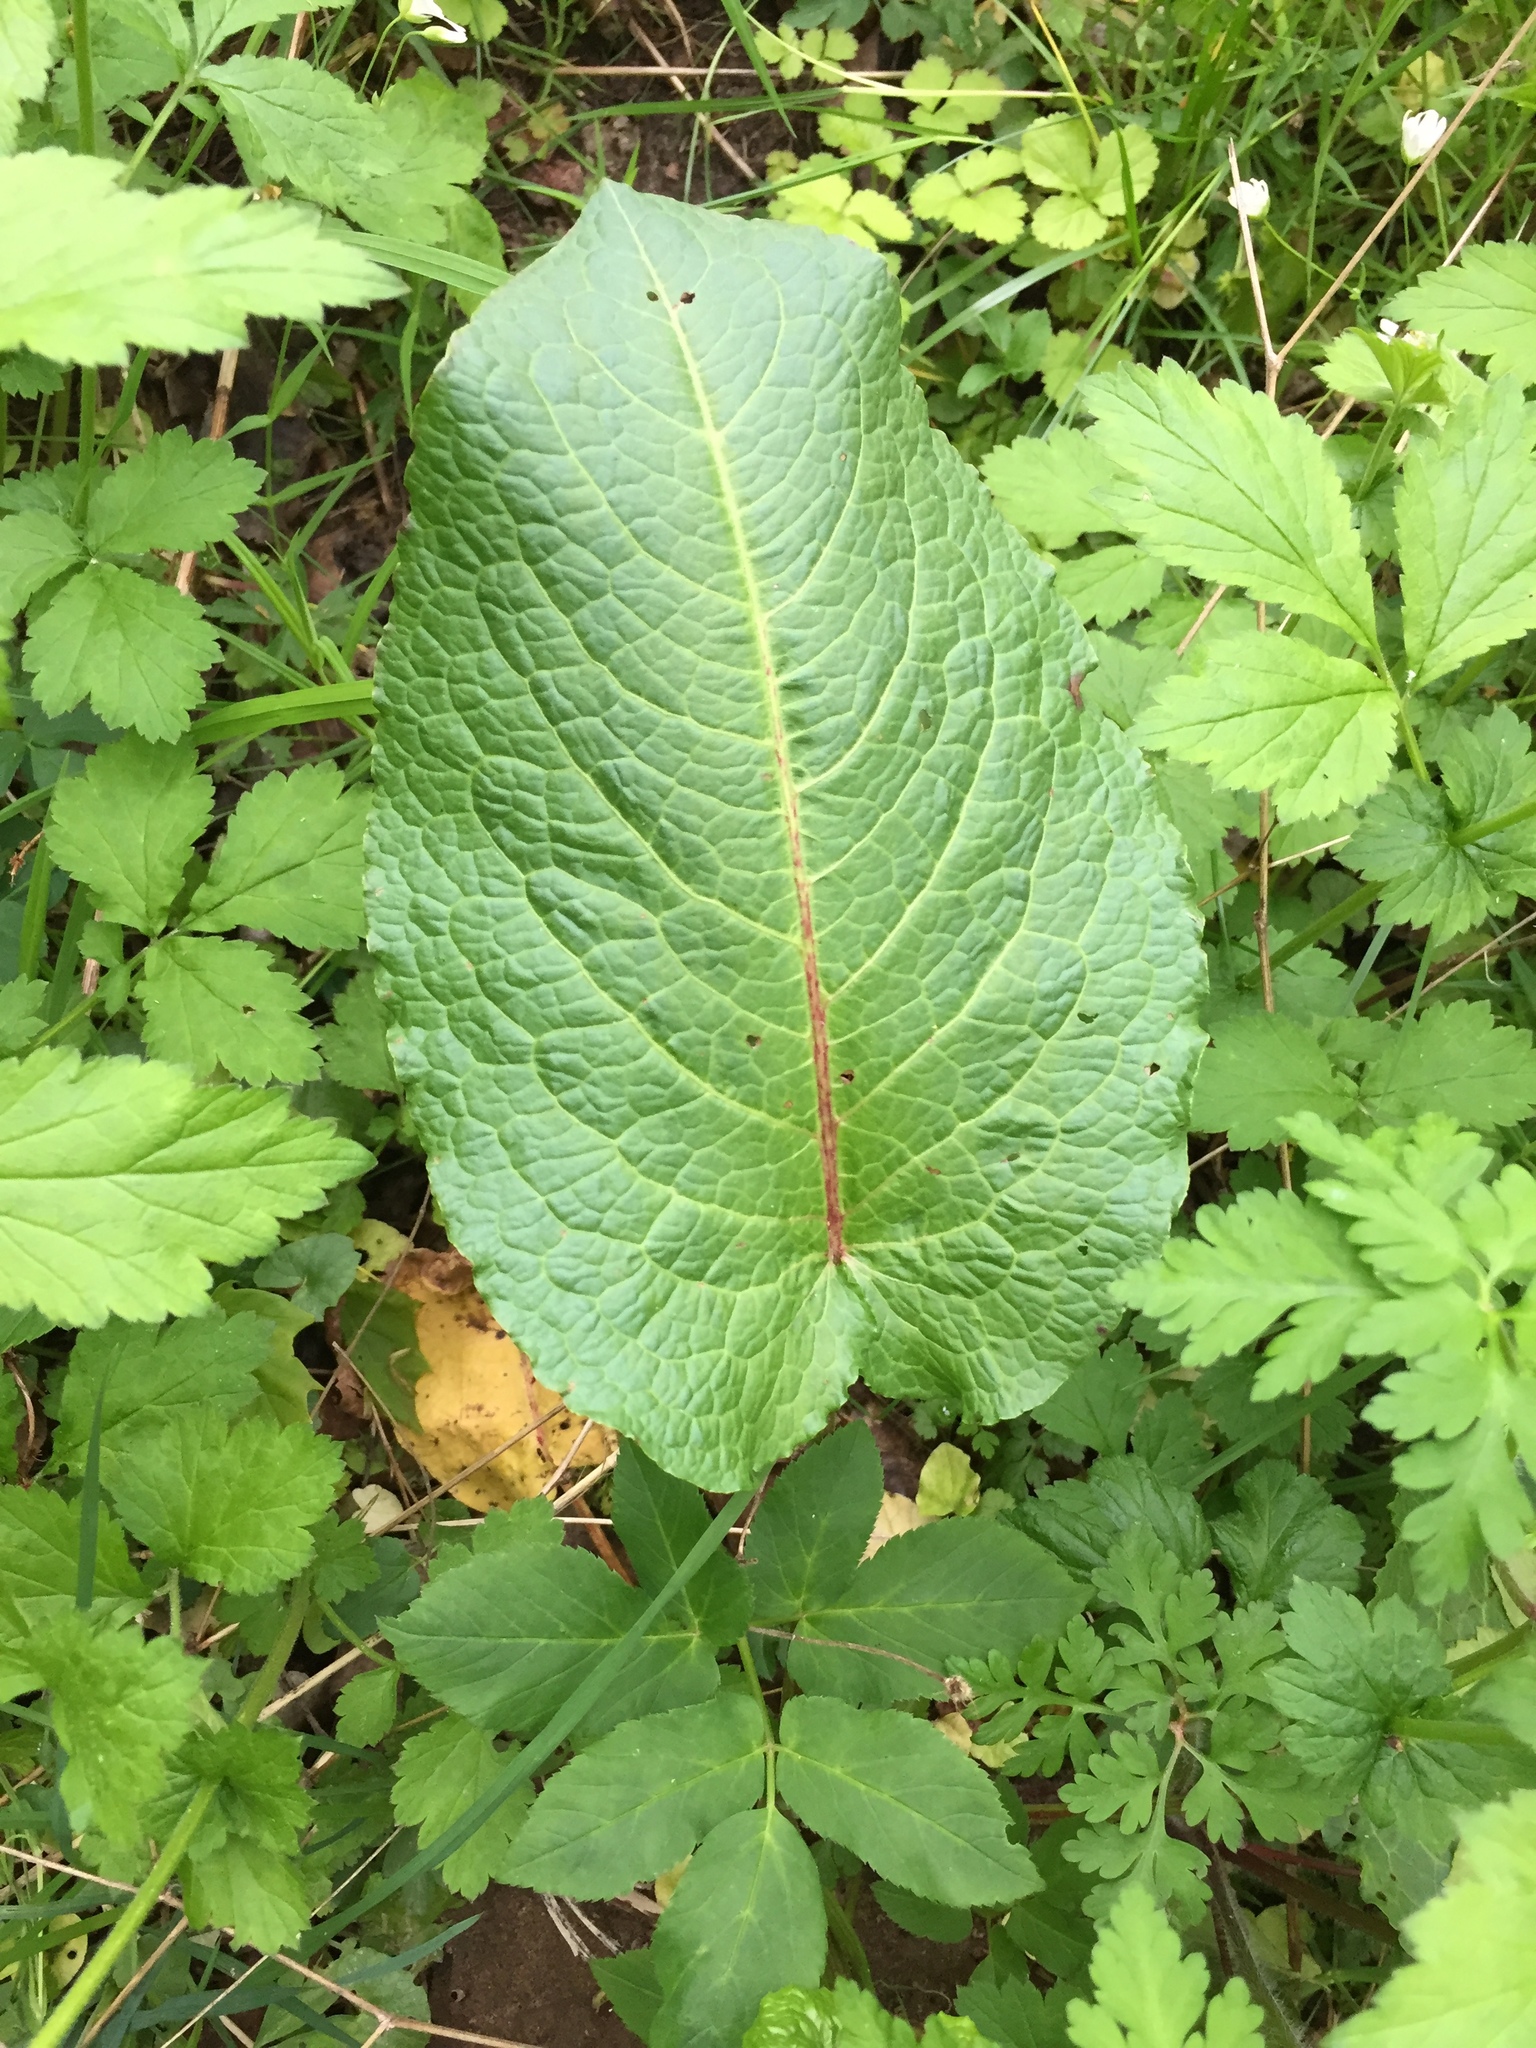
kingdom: Plantae
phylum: Tracheophyta
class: Magnoliopsida
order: Caryophyllales
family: Polygonaceae
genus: Rumex
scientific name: Rumex obtusifolius
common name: Bitter dock
